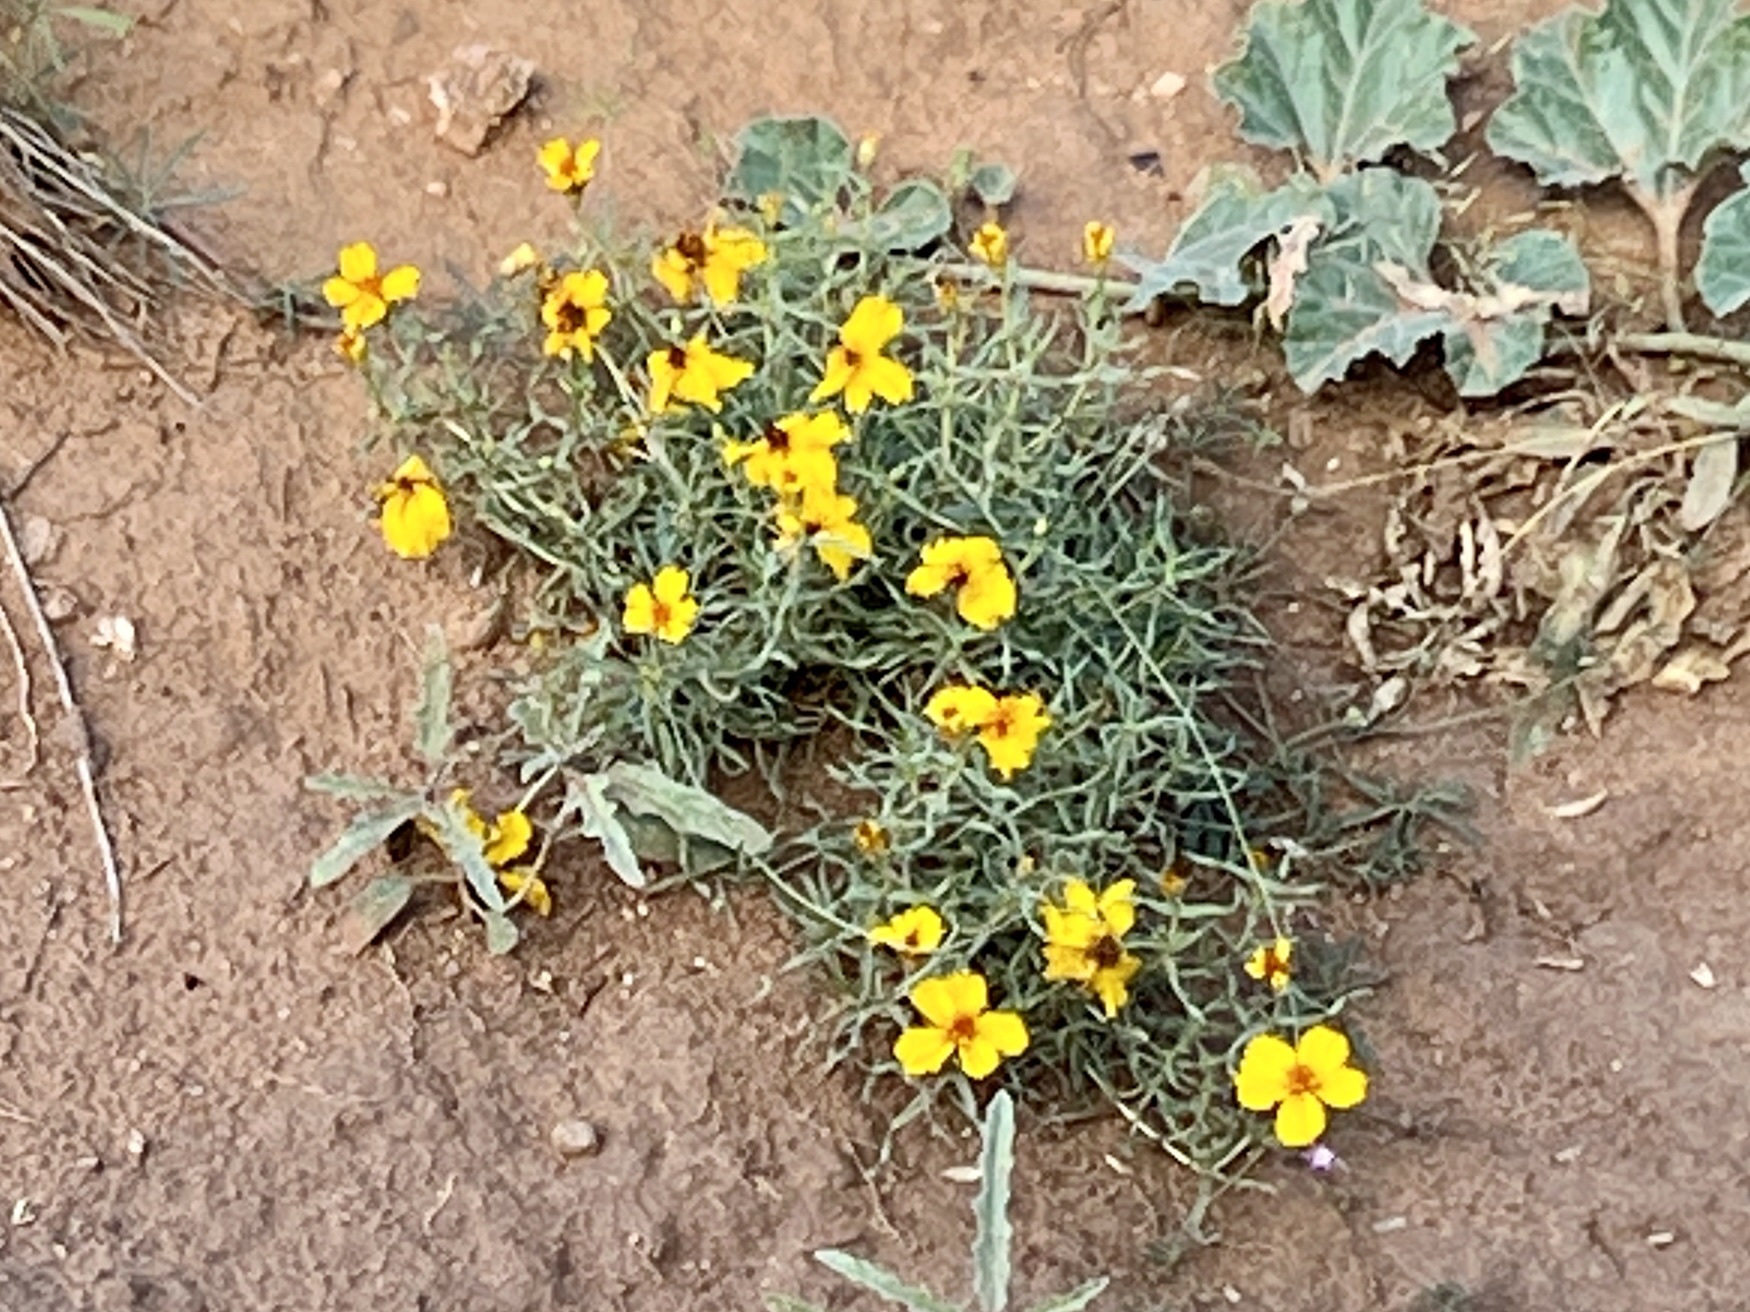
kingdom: Plantae
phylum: Tracheophyta
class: Magnoliopsida
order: Asterales
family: Asteraceae
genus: Zinnia
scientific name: Zinnia grandiflora
